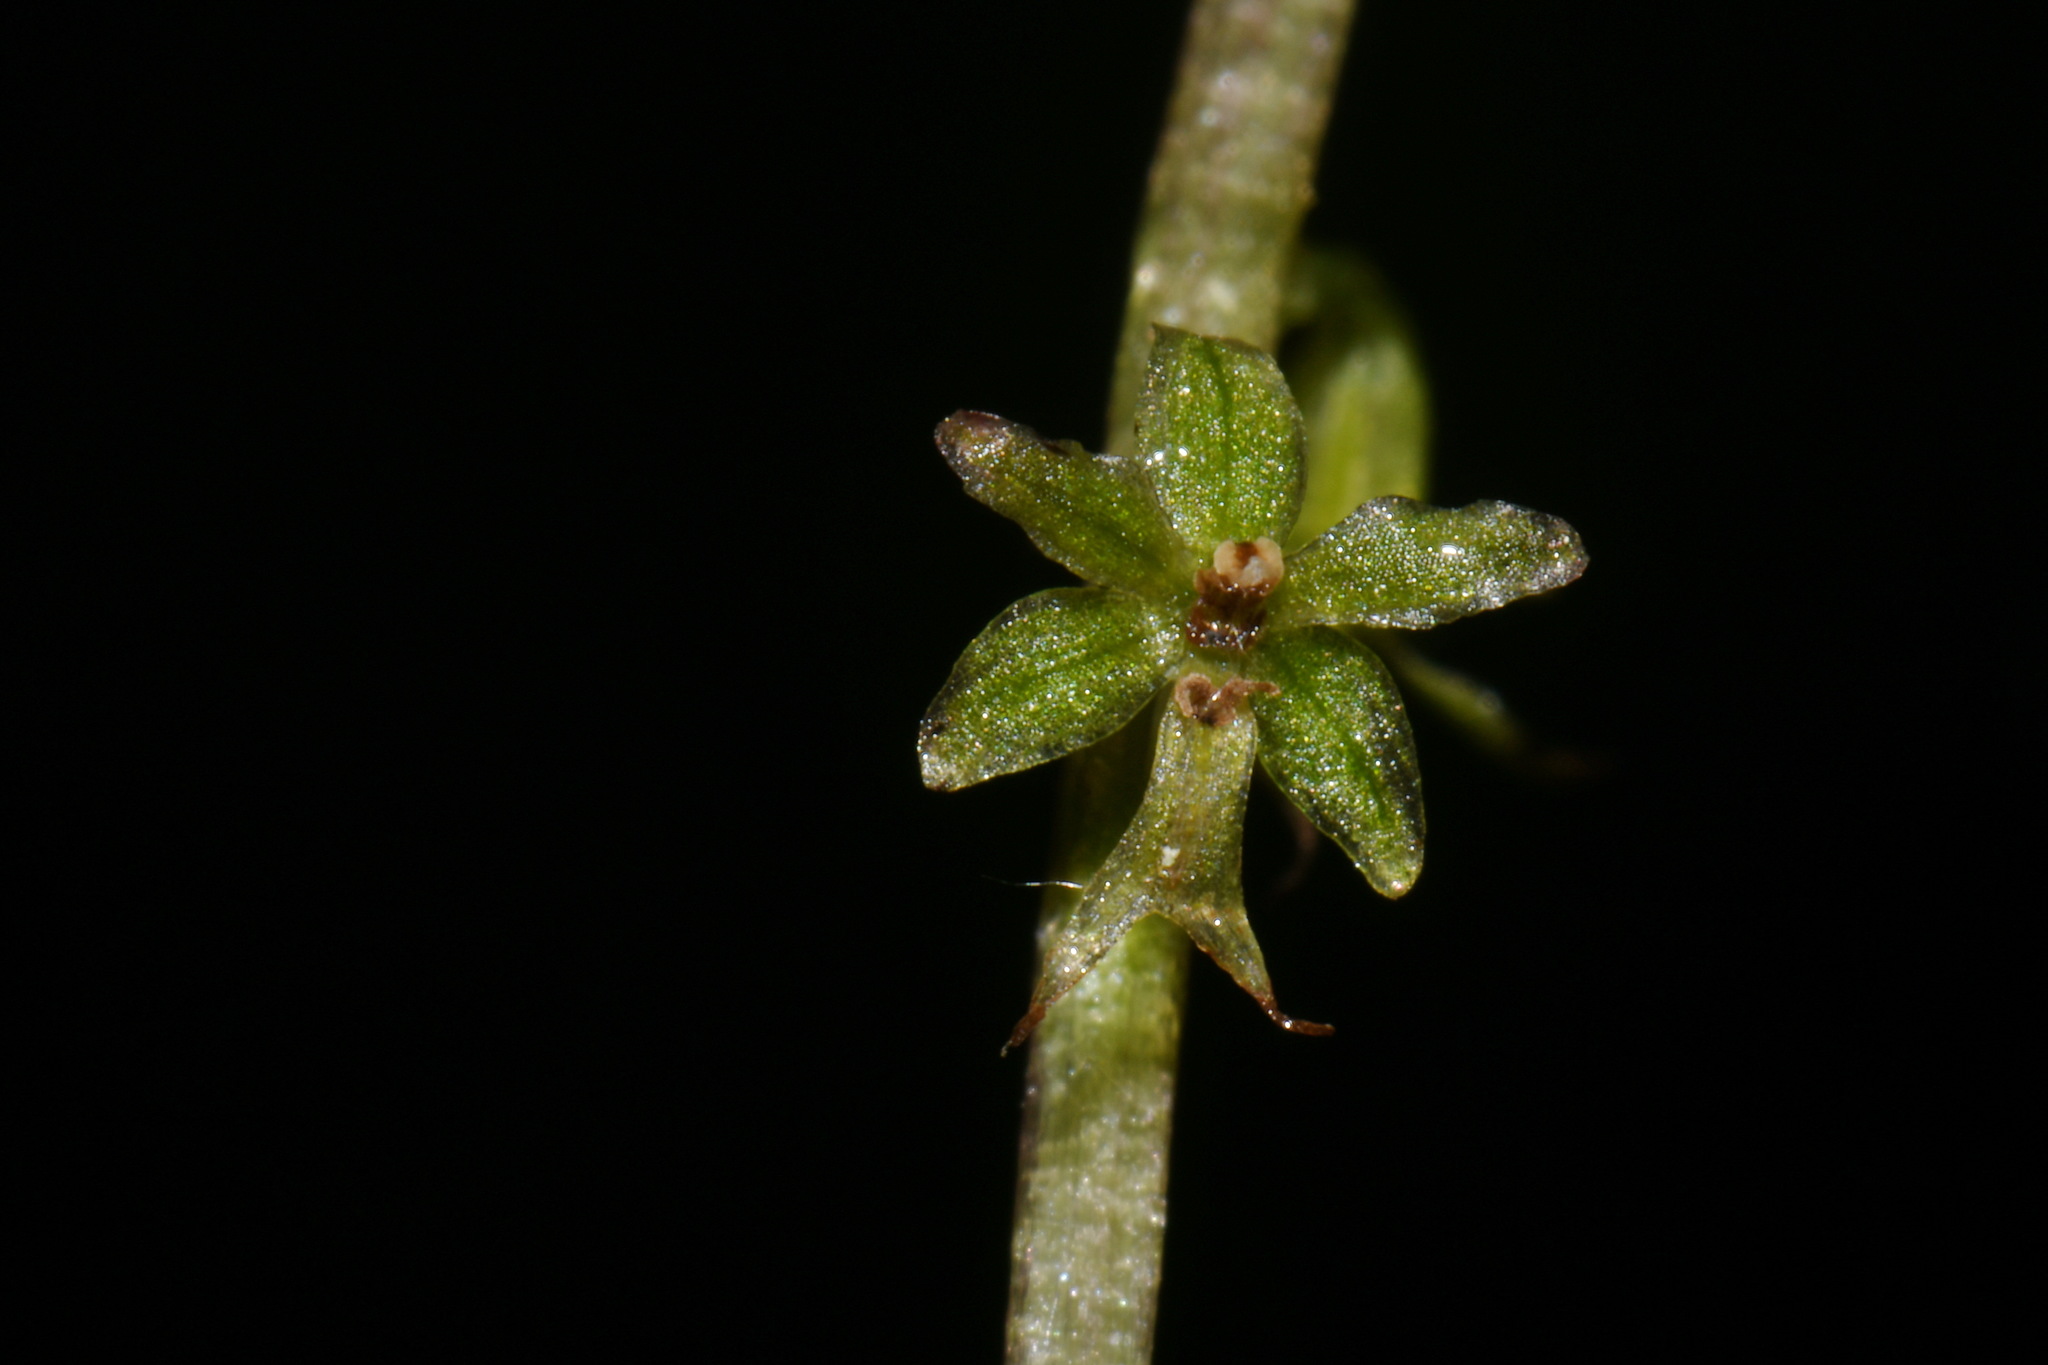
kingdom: Plantae
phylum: Tracheophyta
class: Liliopsida
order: Asparagales
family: Orchidaceae
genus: Neottia
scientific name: Neottia cordata
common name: Lesser twayblade
